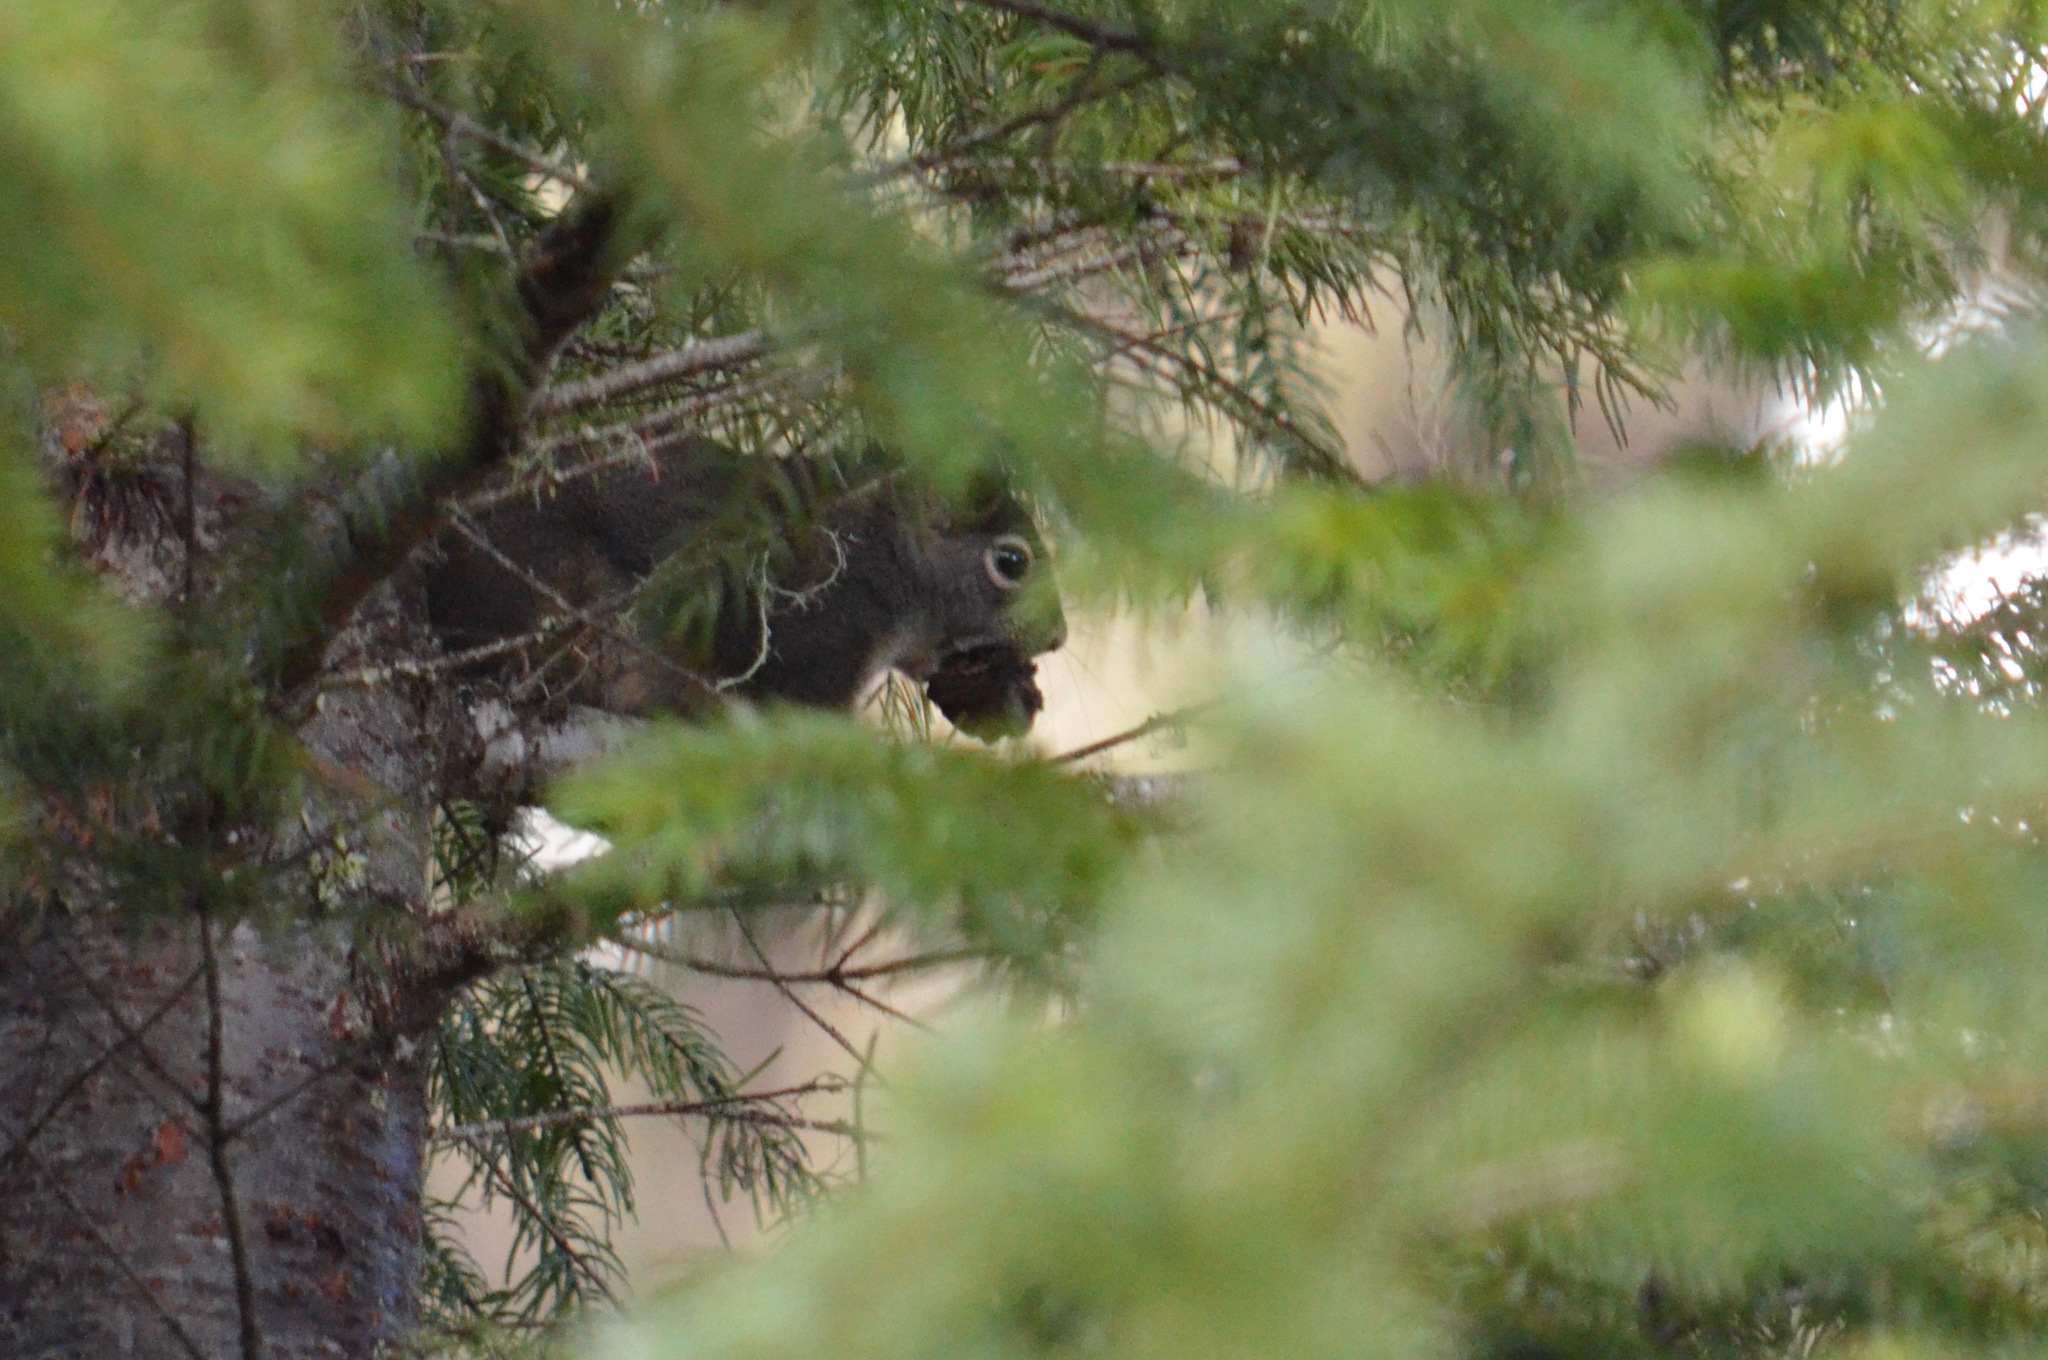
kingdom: Animalia
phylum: Chordata
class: Mammalia
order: Rodentia
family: Sciuridae
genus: Tamiasciurus
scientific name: Tamiasciurus douglasii
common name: Douglas's squirrel
